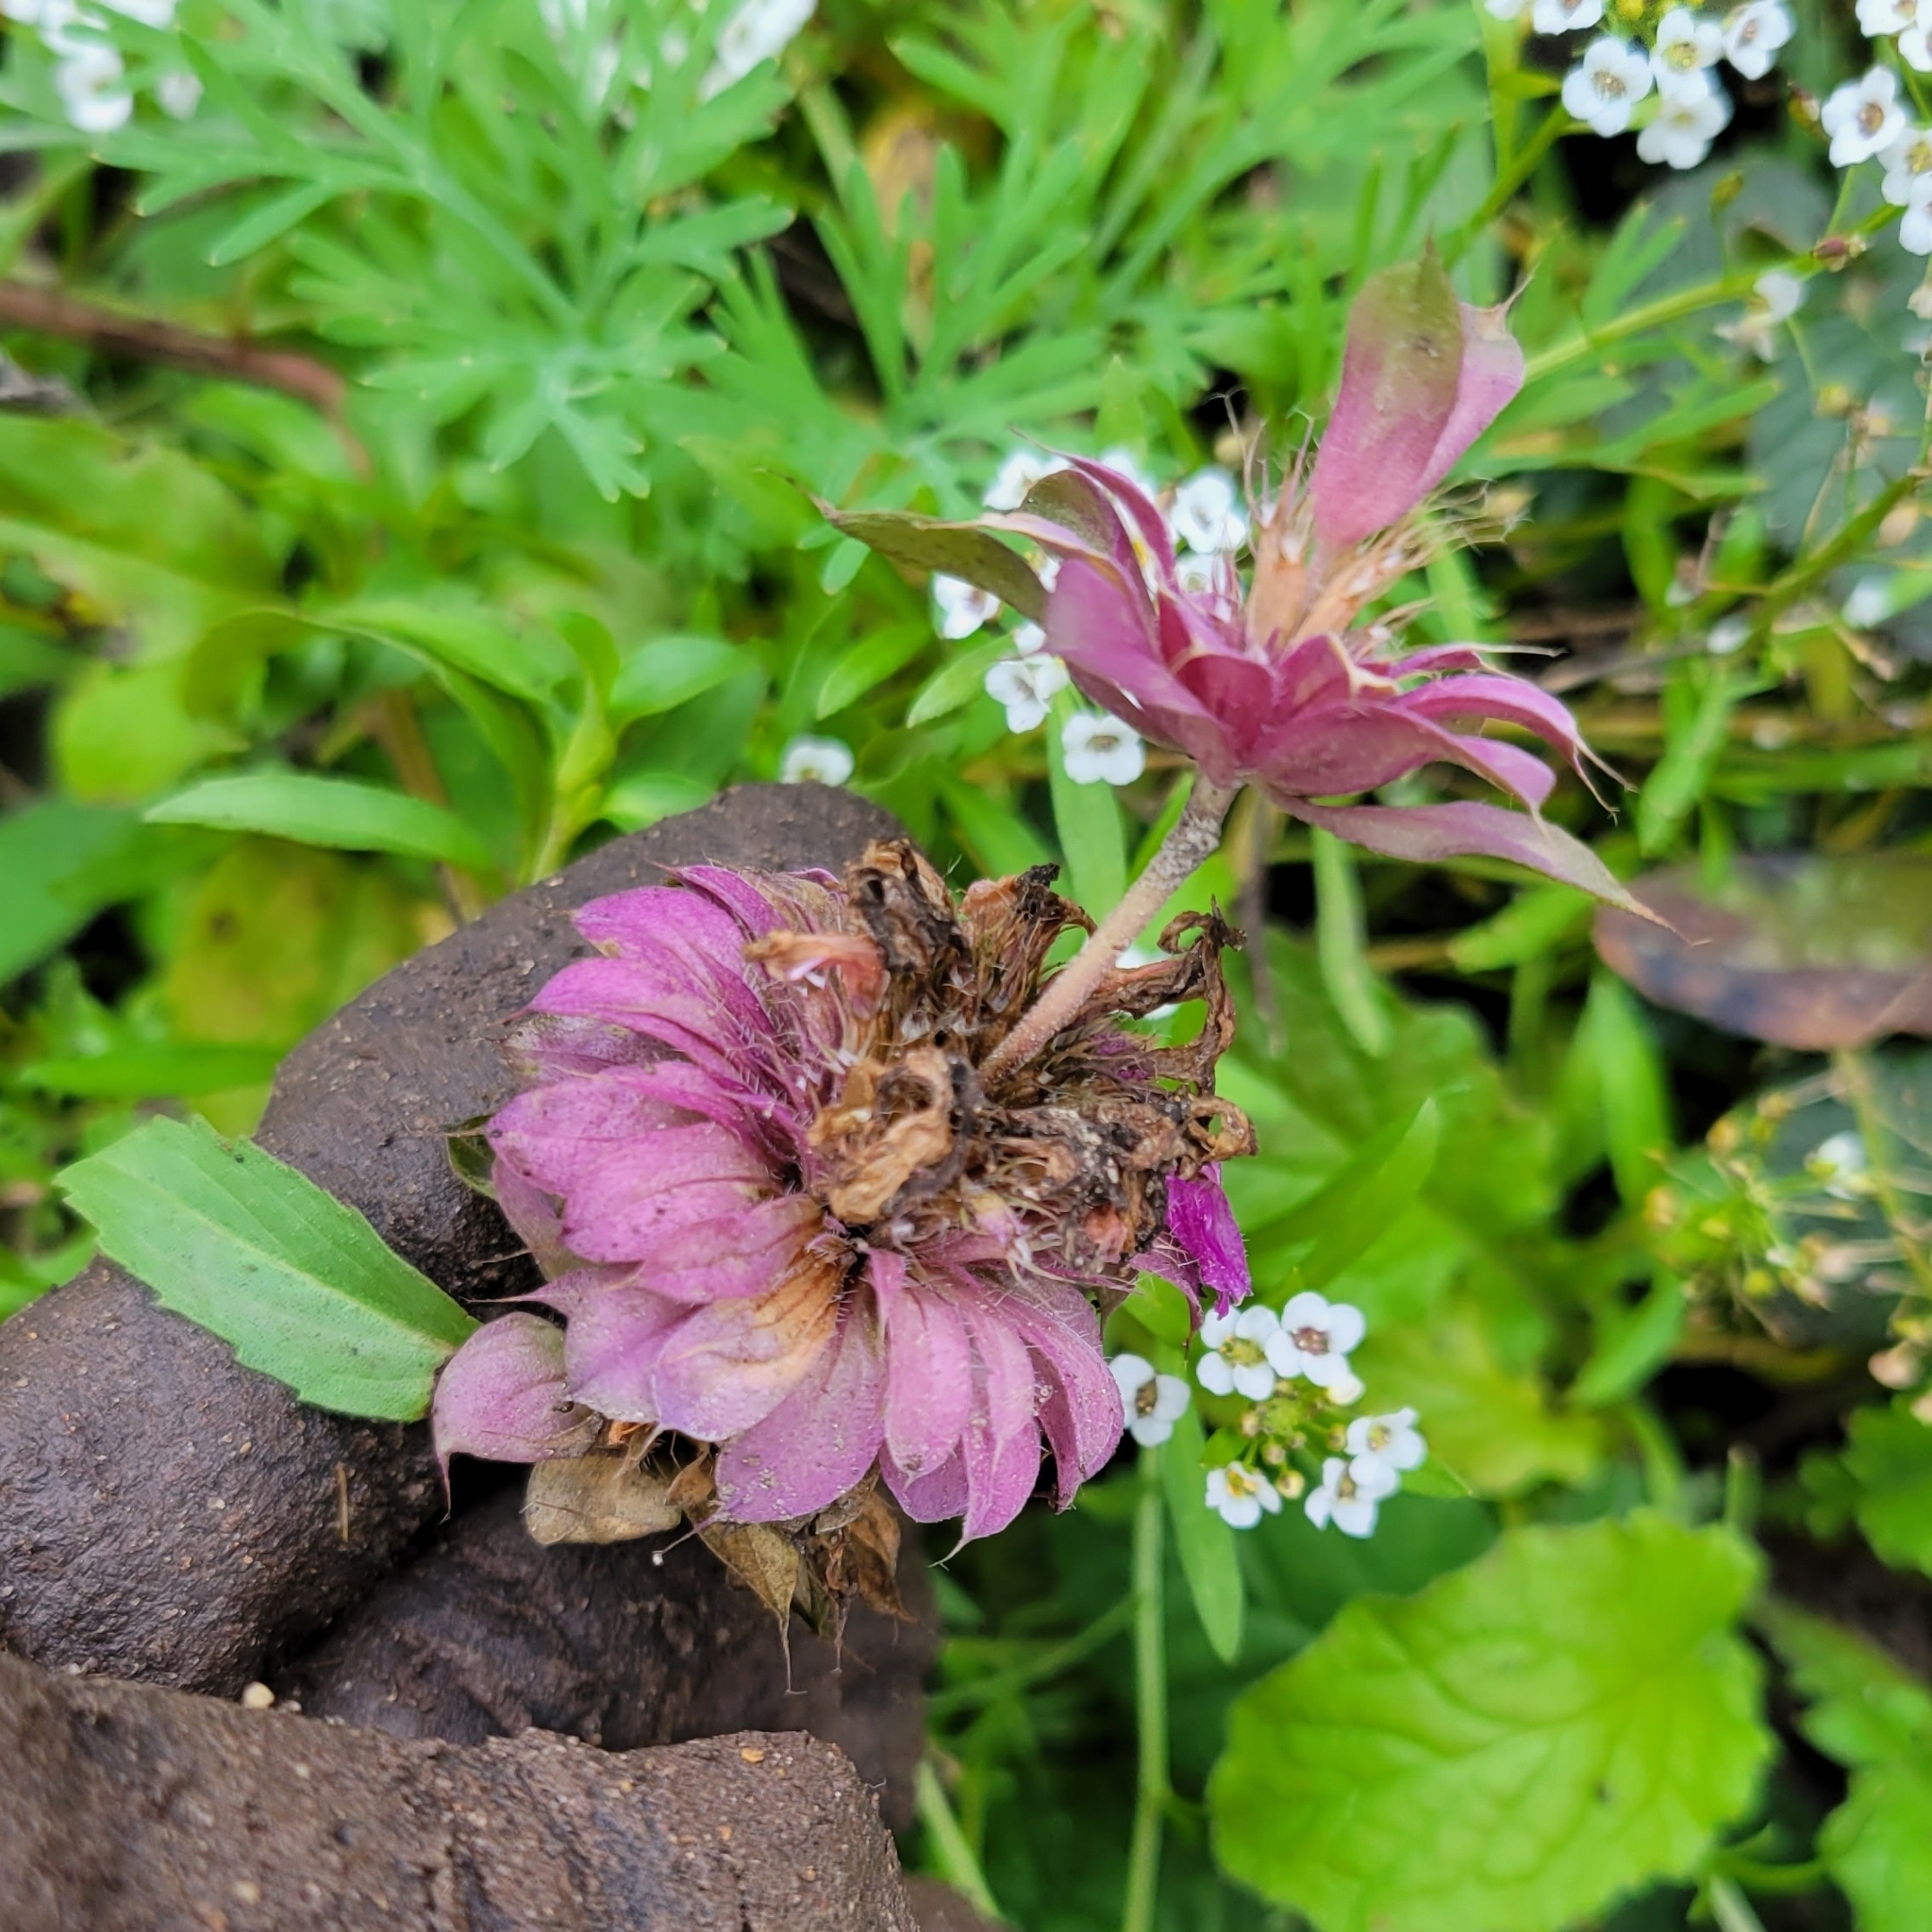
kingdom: Plantae
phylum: Tracheophyta
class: Magnoliopsida
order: Lamiales
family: Lamiaceae
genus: Monarda
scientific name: Monarda citriodora
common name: Lemon beebalm
